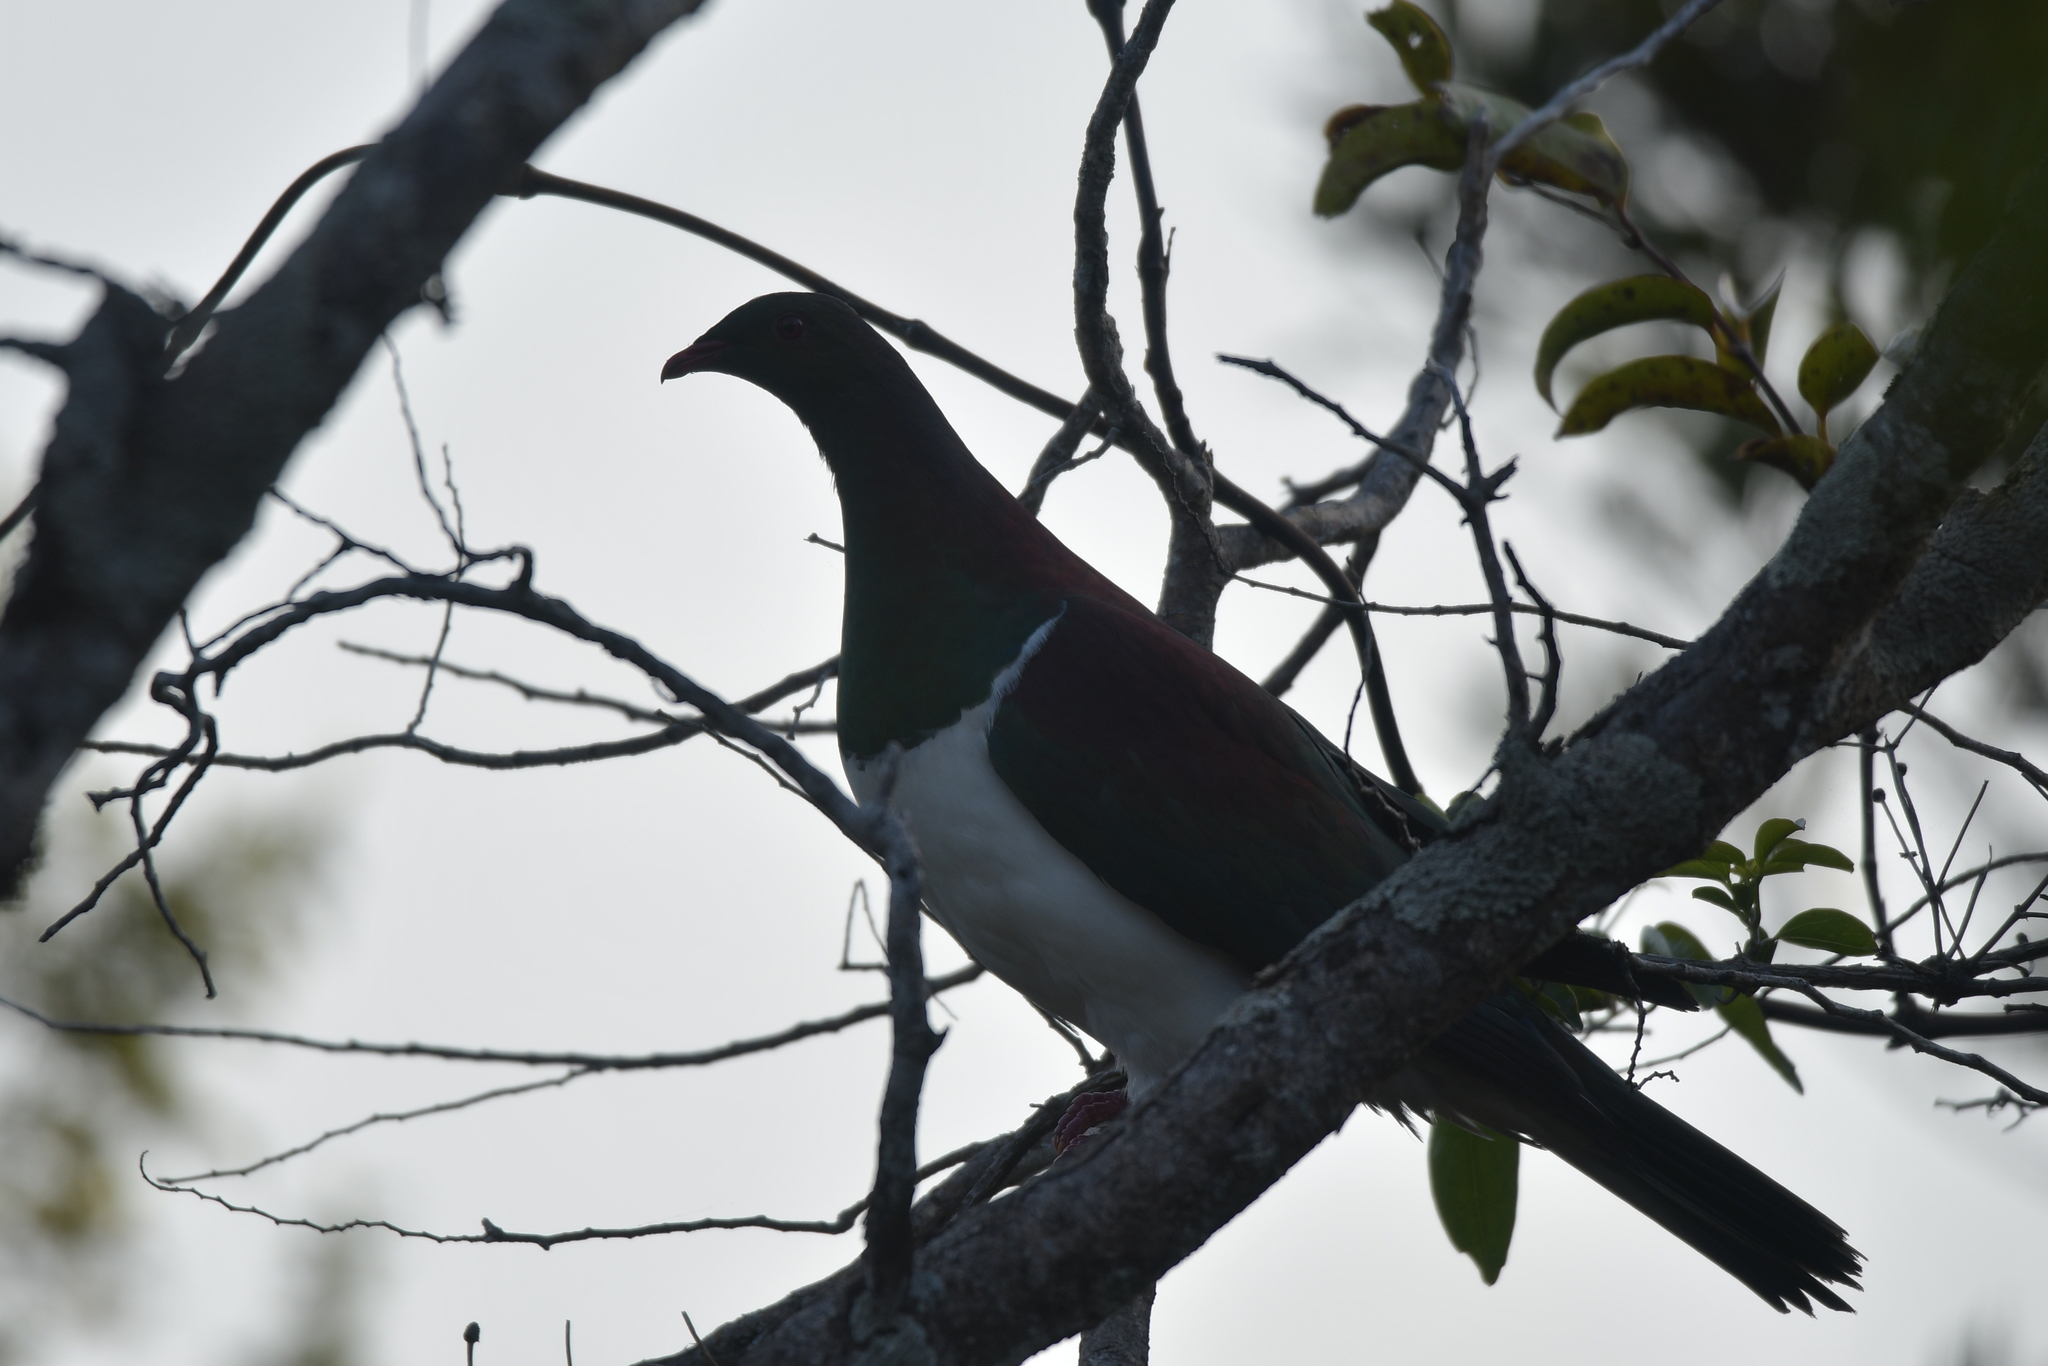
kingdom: Animalia
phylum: Chordata
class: Aves
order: Columbiformes
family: Columbidae
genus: Hemiphaga
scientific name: Hemiphaga novaeseelandiae
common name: New zealand pigeon
